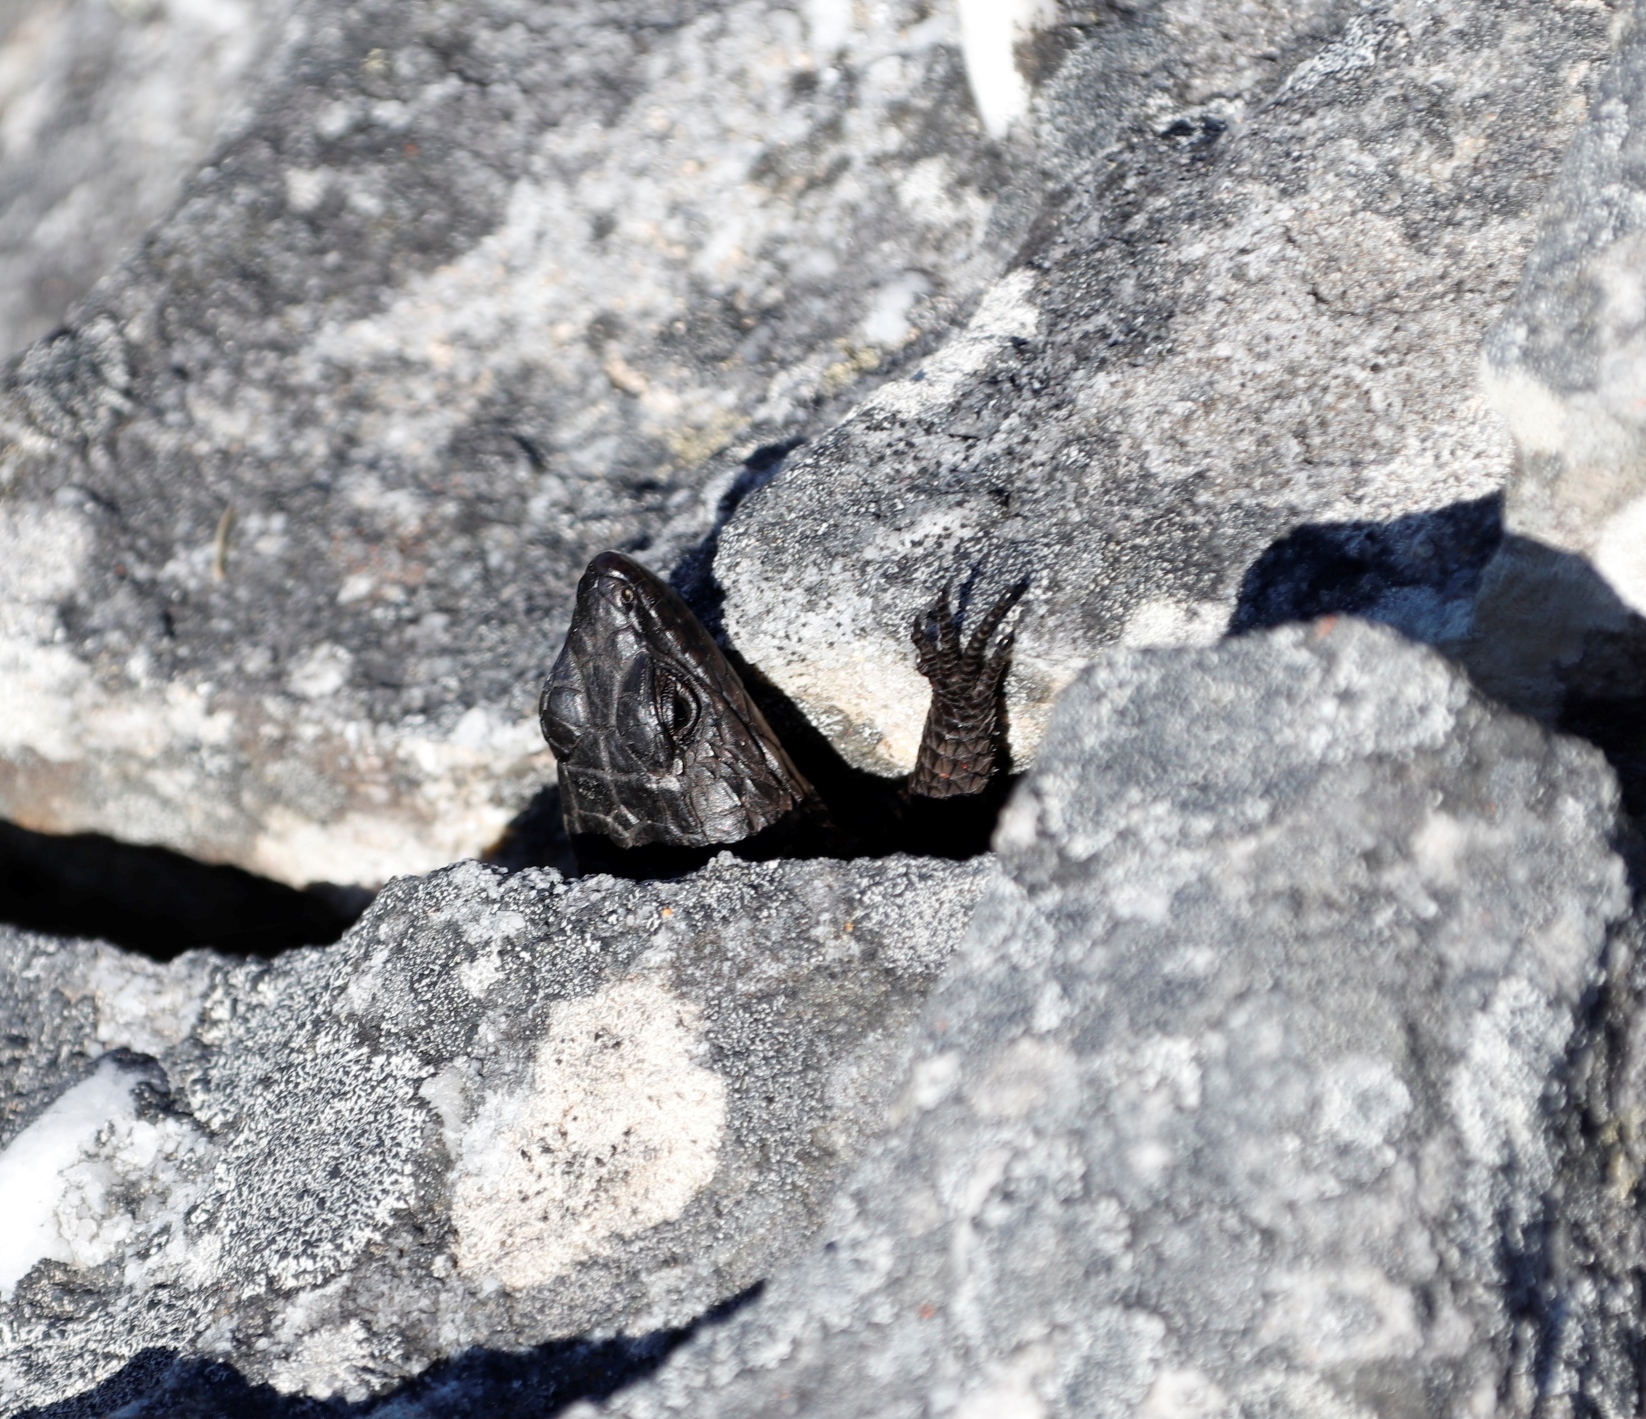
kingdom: Animalia
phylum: Chordata
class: Squamata
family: Cordylidae
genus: Cordylus
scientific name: Cordylus niger
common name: Black girdled lizard
